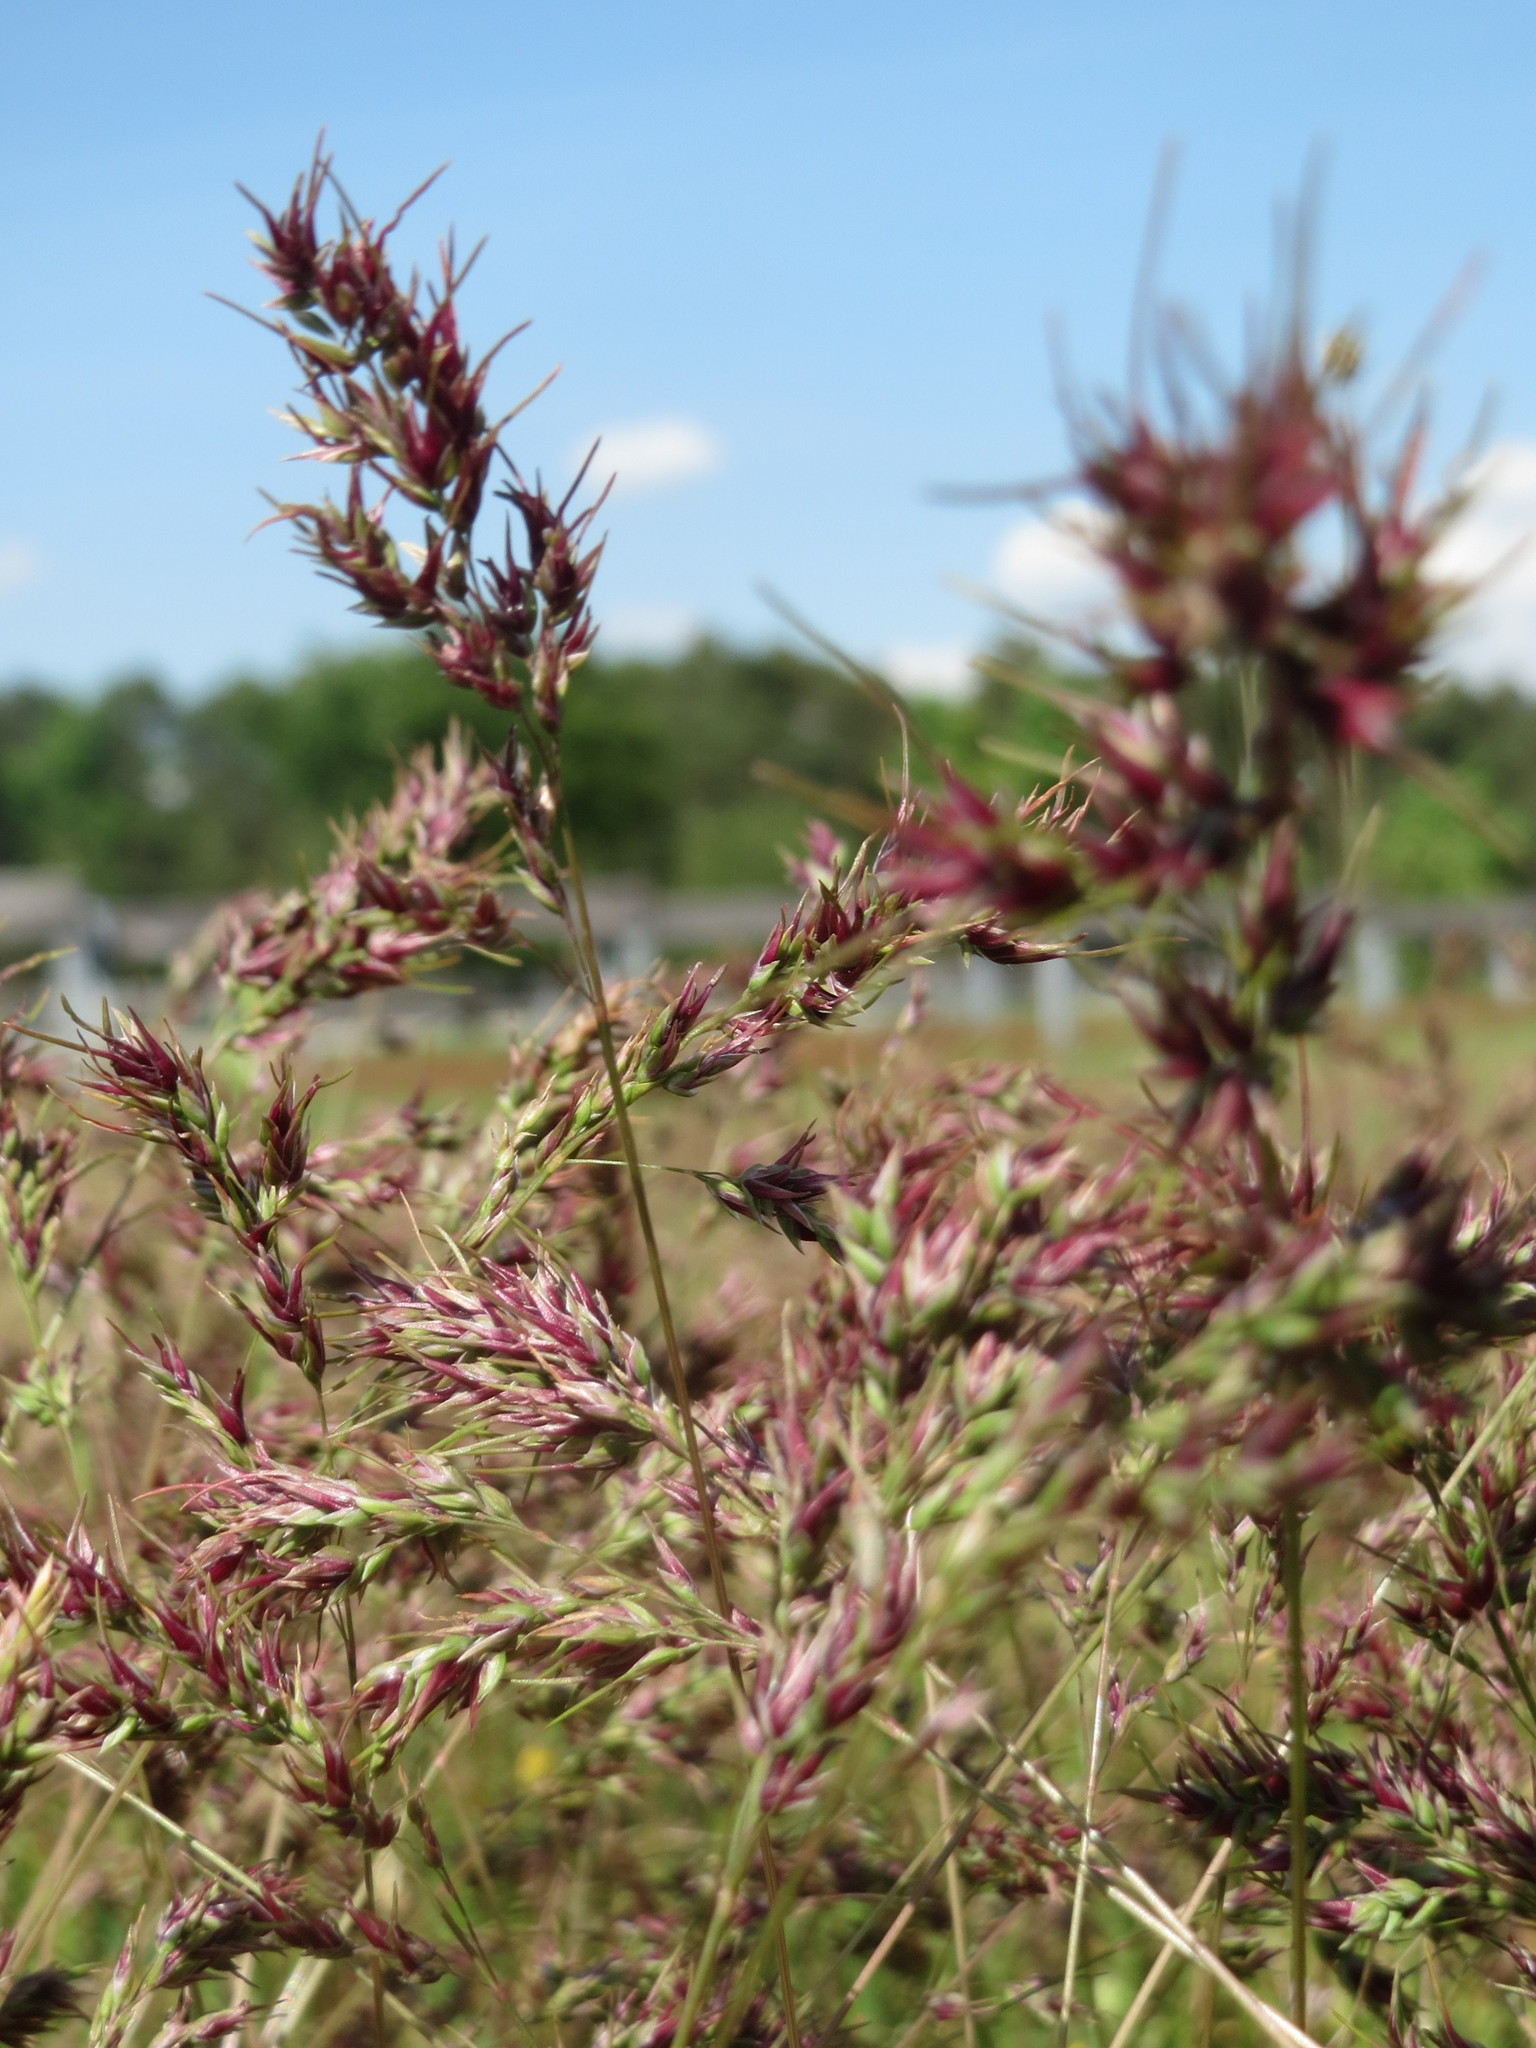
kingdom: Plantae
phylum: Tracheophyta
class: Liliopsida
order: Poales
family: Poaceae
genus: Poa
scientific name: Poa bulbosa
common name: Bulbous bluegrass
